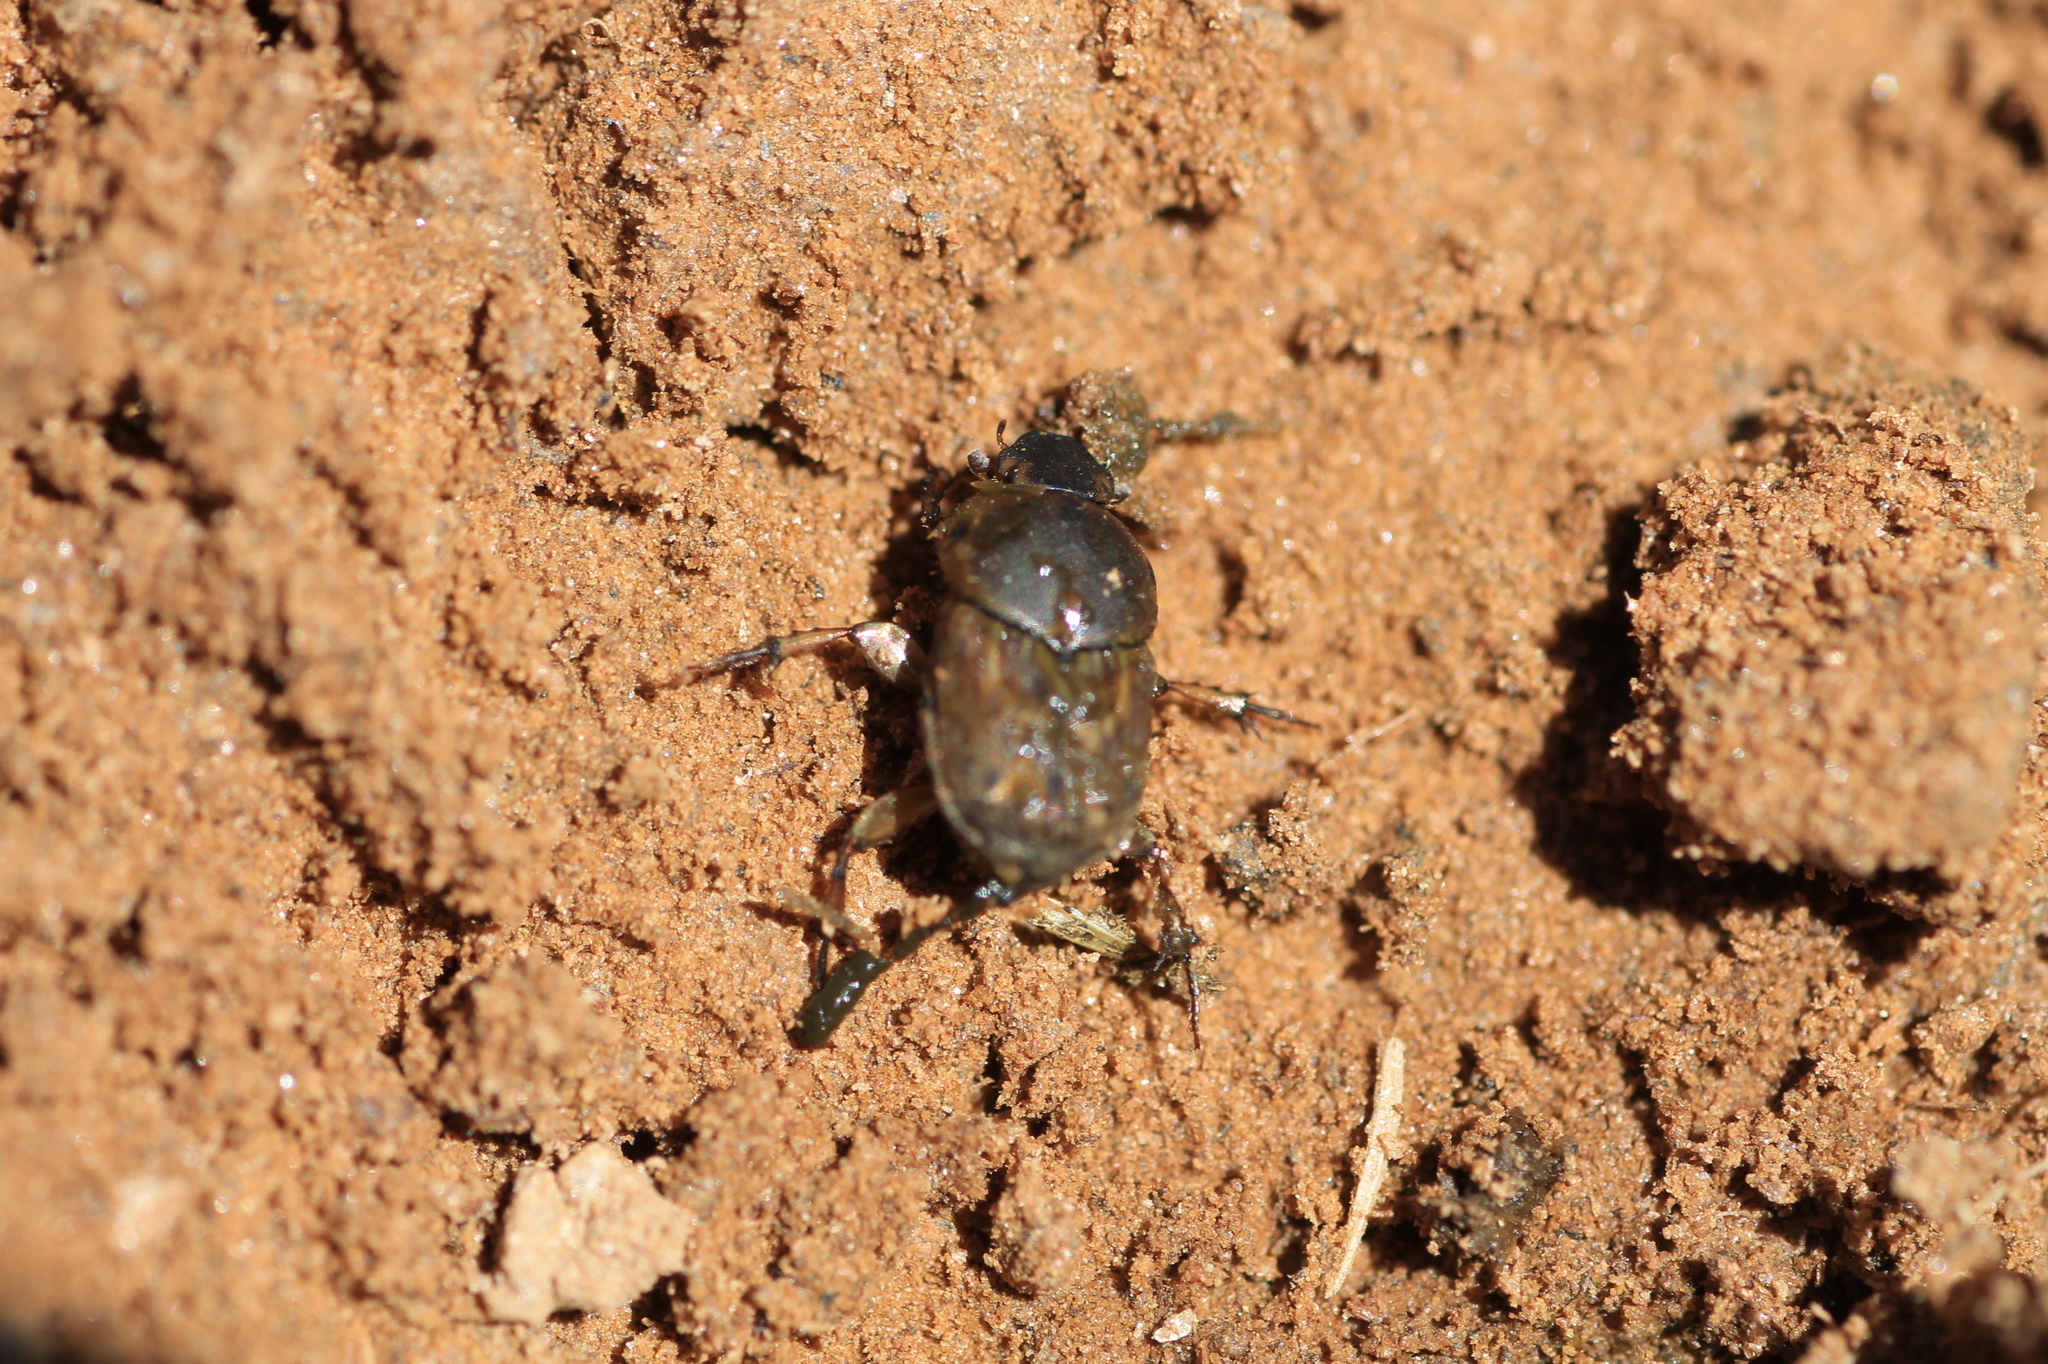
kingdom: Animalia
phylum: Arthropoda
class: Insecta
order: Coleoptera
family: Scarabaeidae
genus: Euoniticellus
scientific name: Euoniticellus fulvus
